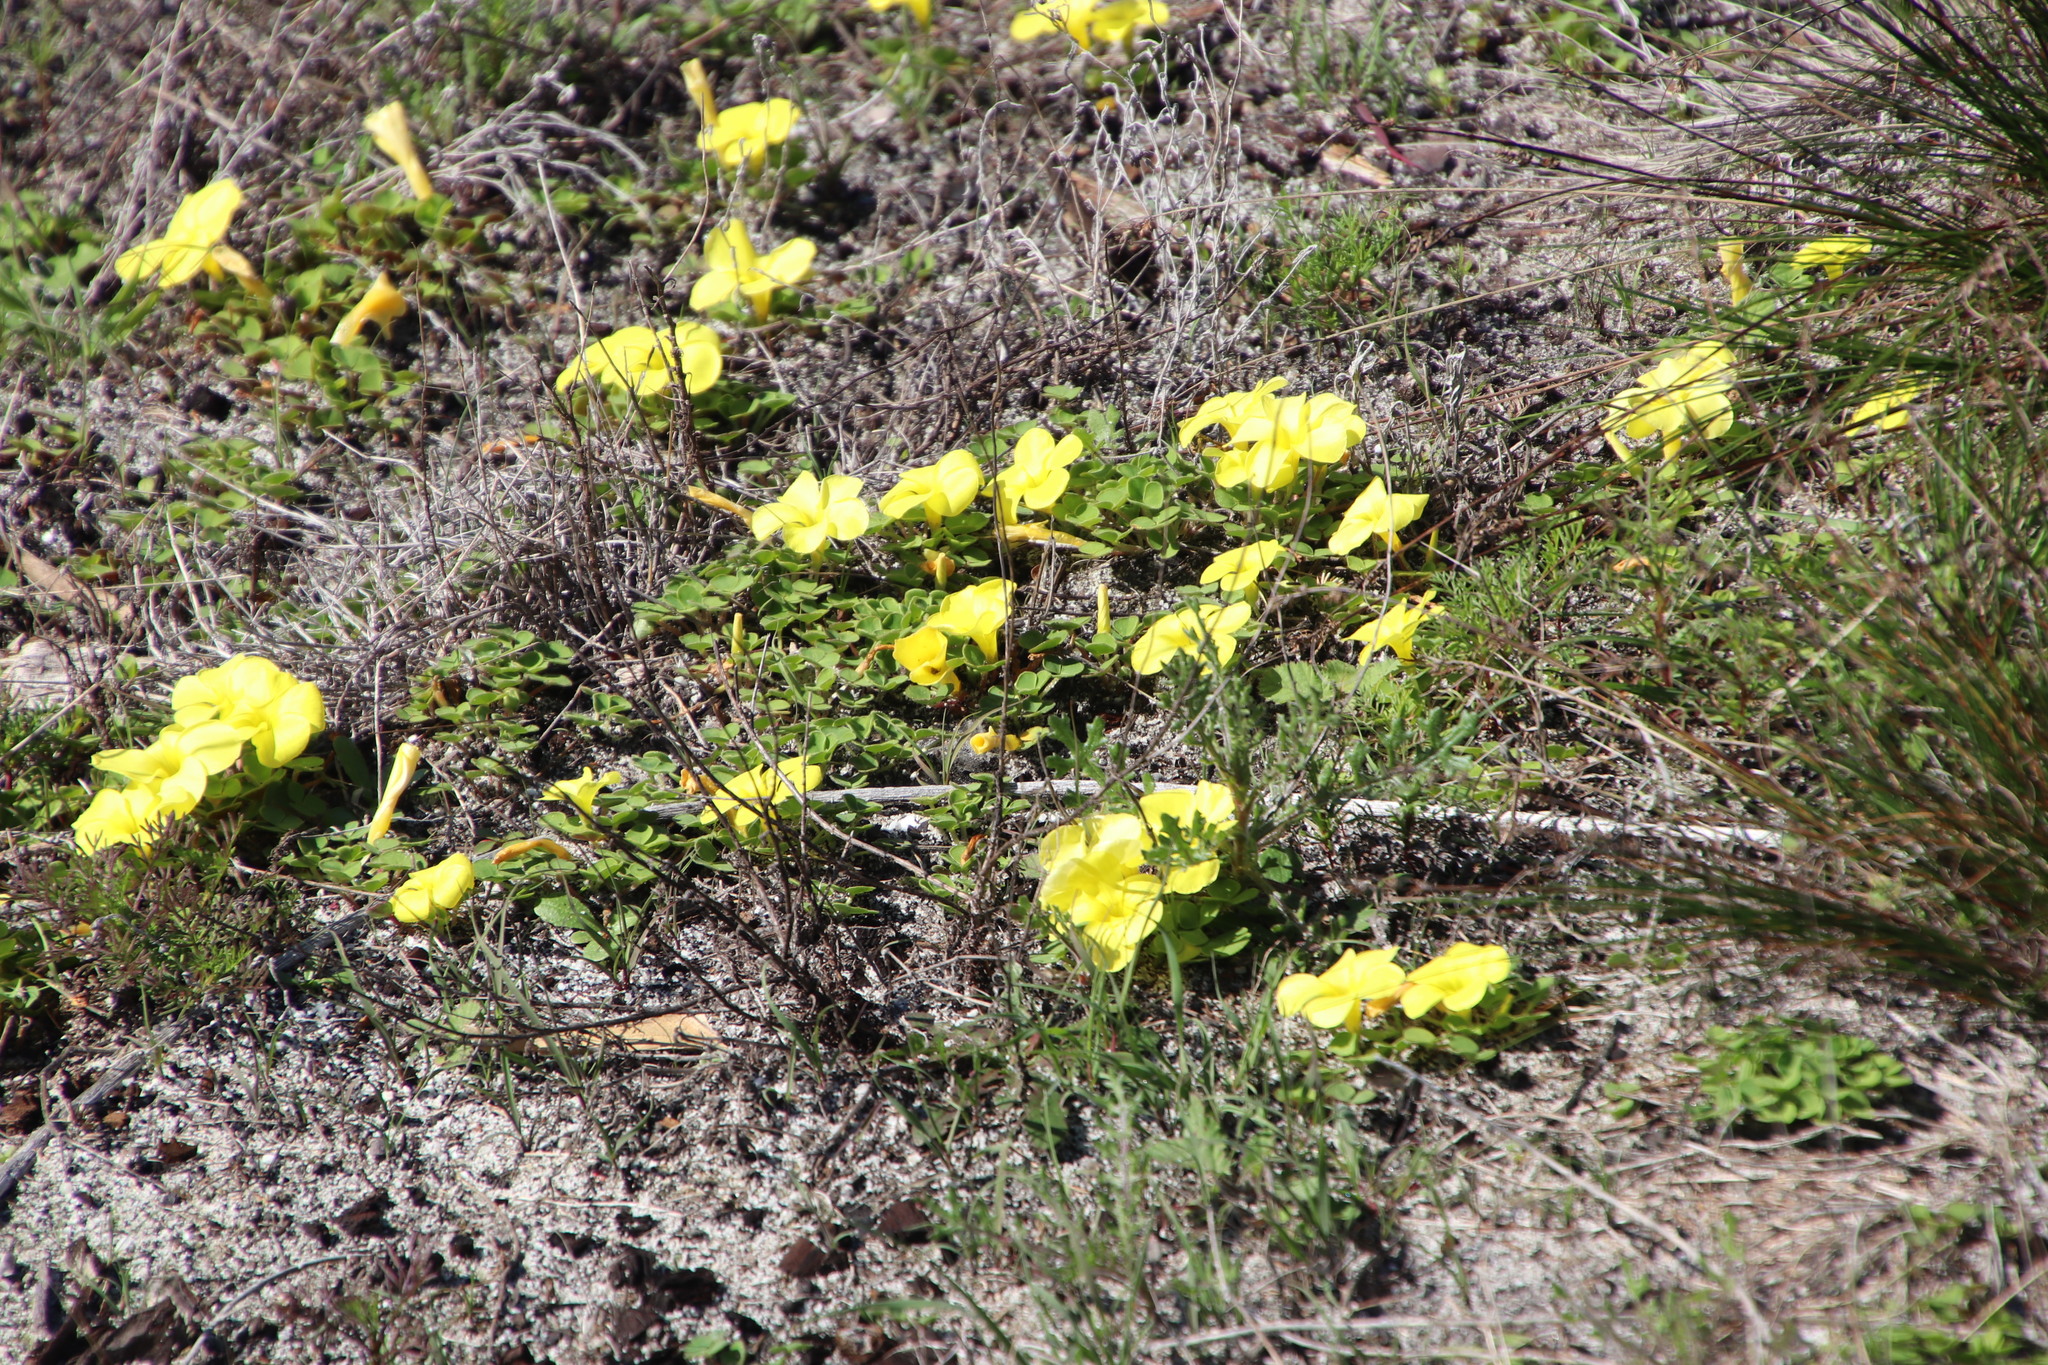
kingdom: Plantae
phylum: Tracheophyta
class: Magnoliopsida
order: Oxalidales
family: Oxalidaceae
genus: Oxalis
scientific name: Oxalis luteola
